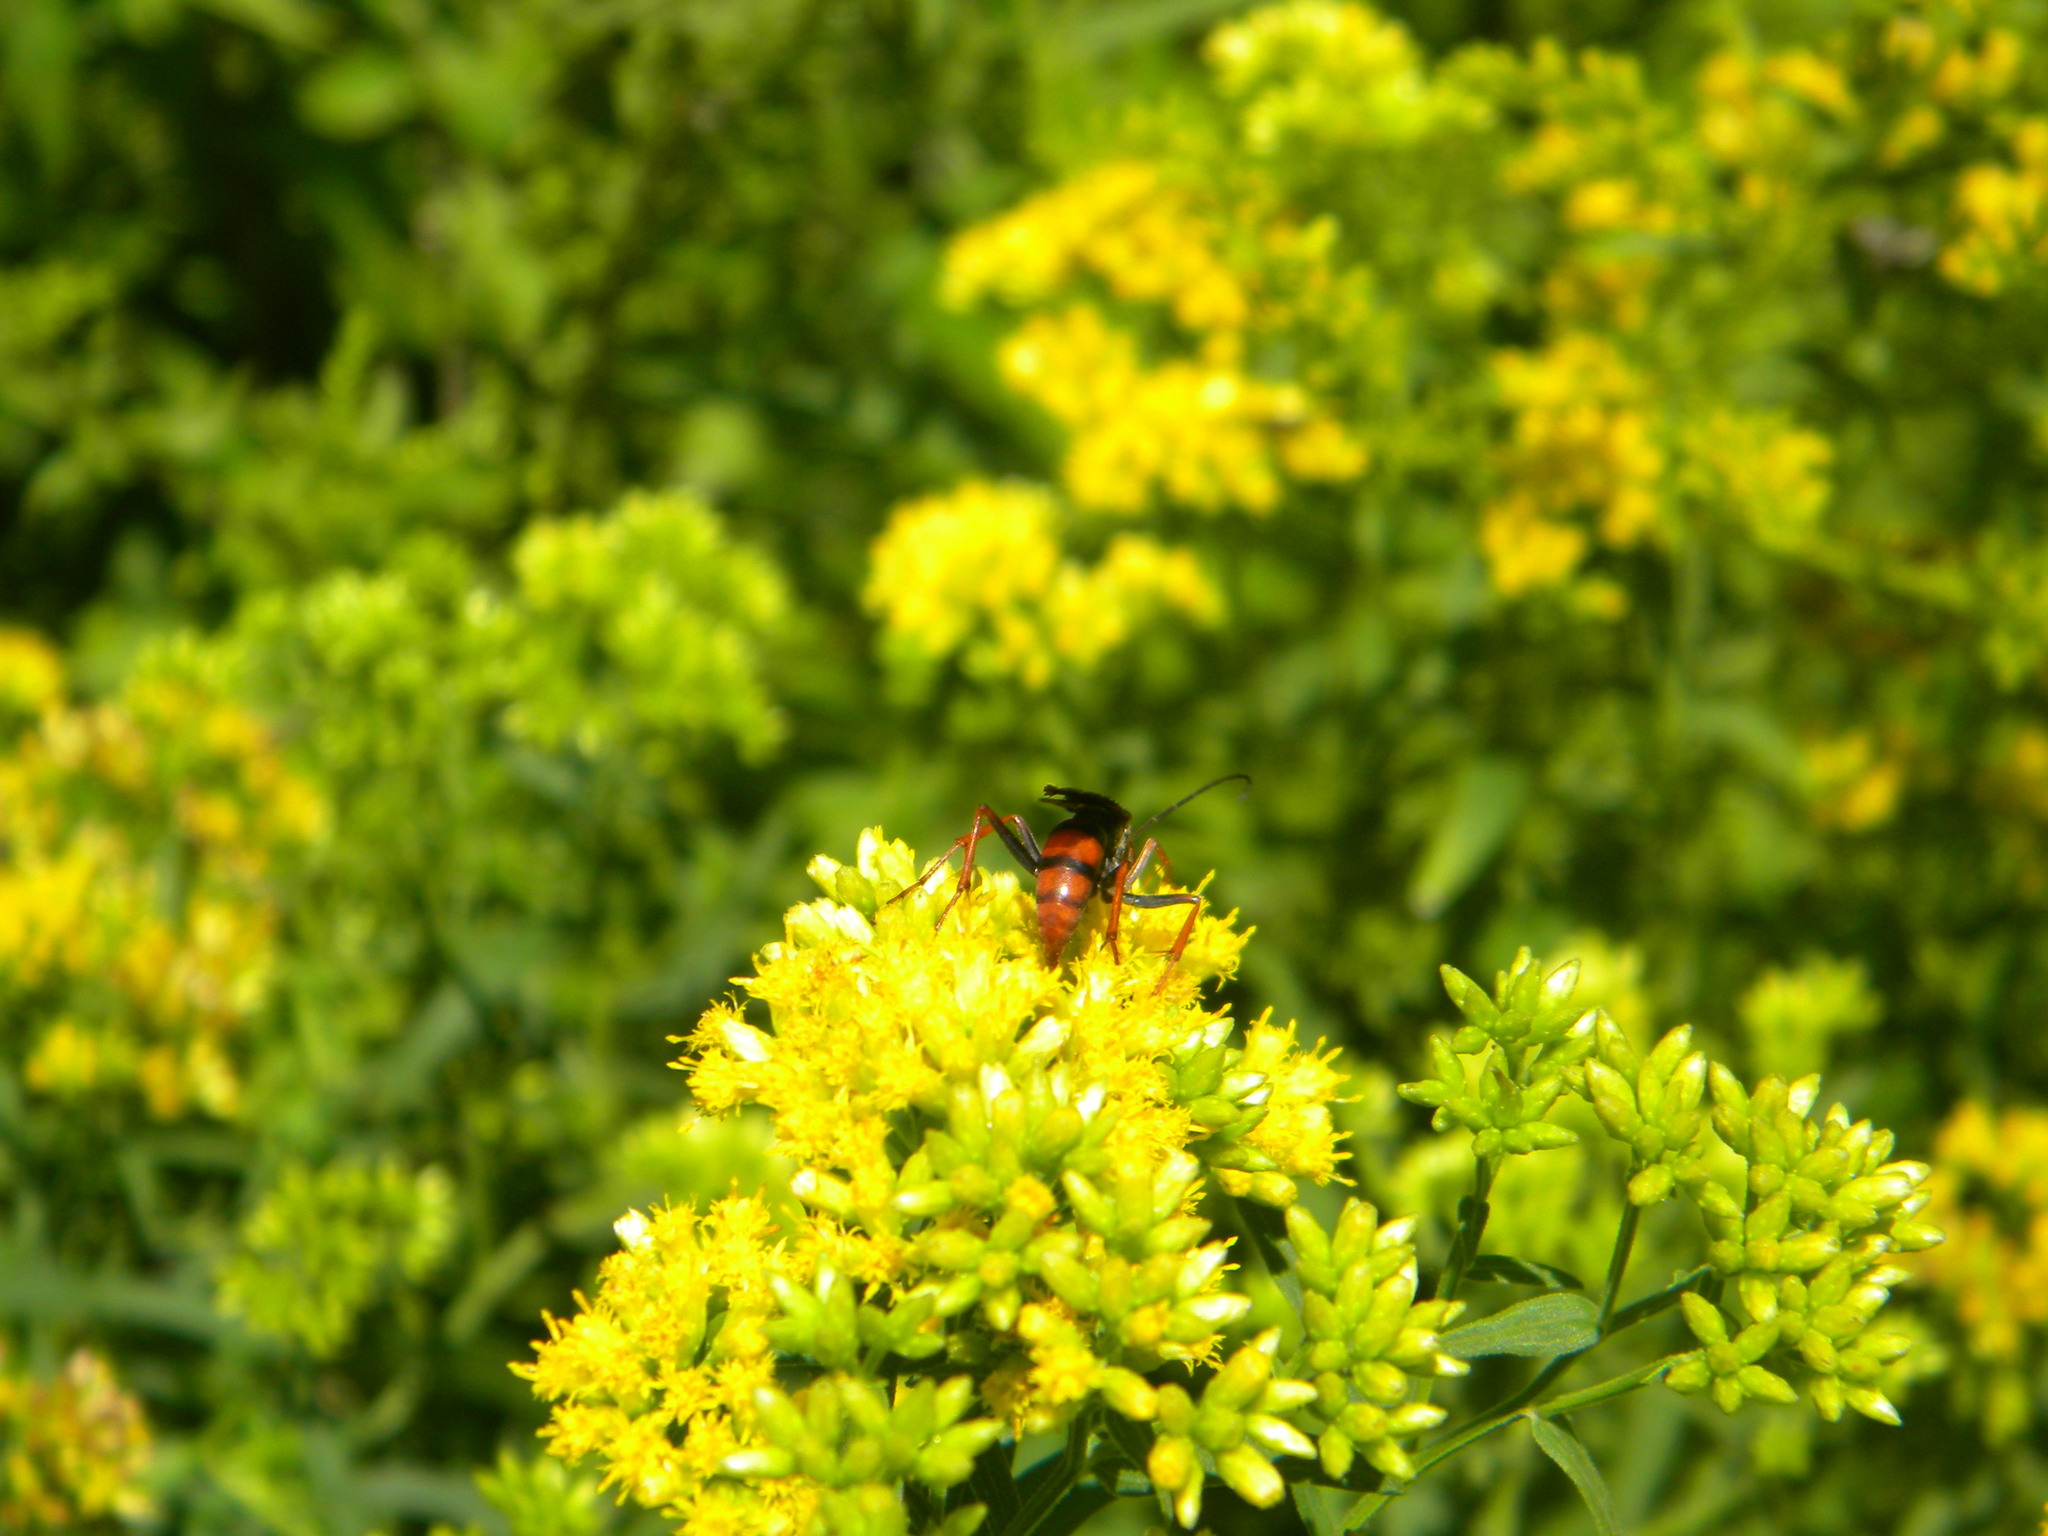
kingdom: Animalia
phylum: Arthropoda
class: Insecta
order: Hymenoptera
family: Pompilidae
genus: Tachypompilus
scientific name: Tachypompilus ferrugineus
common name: Rusty spider wasp
